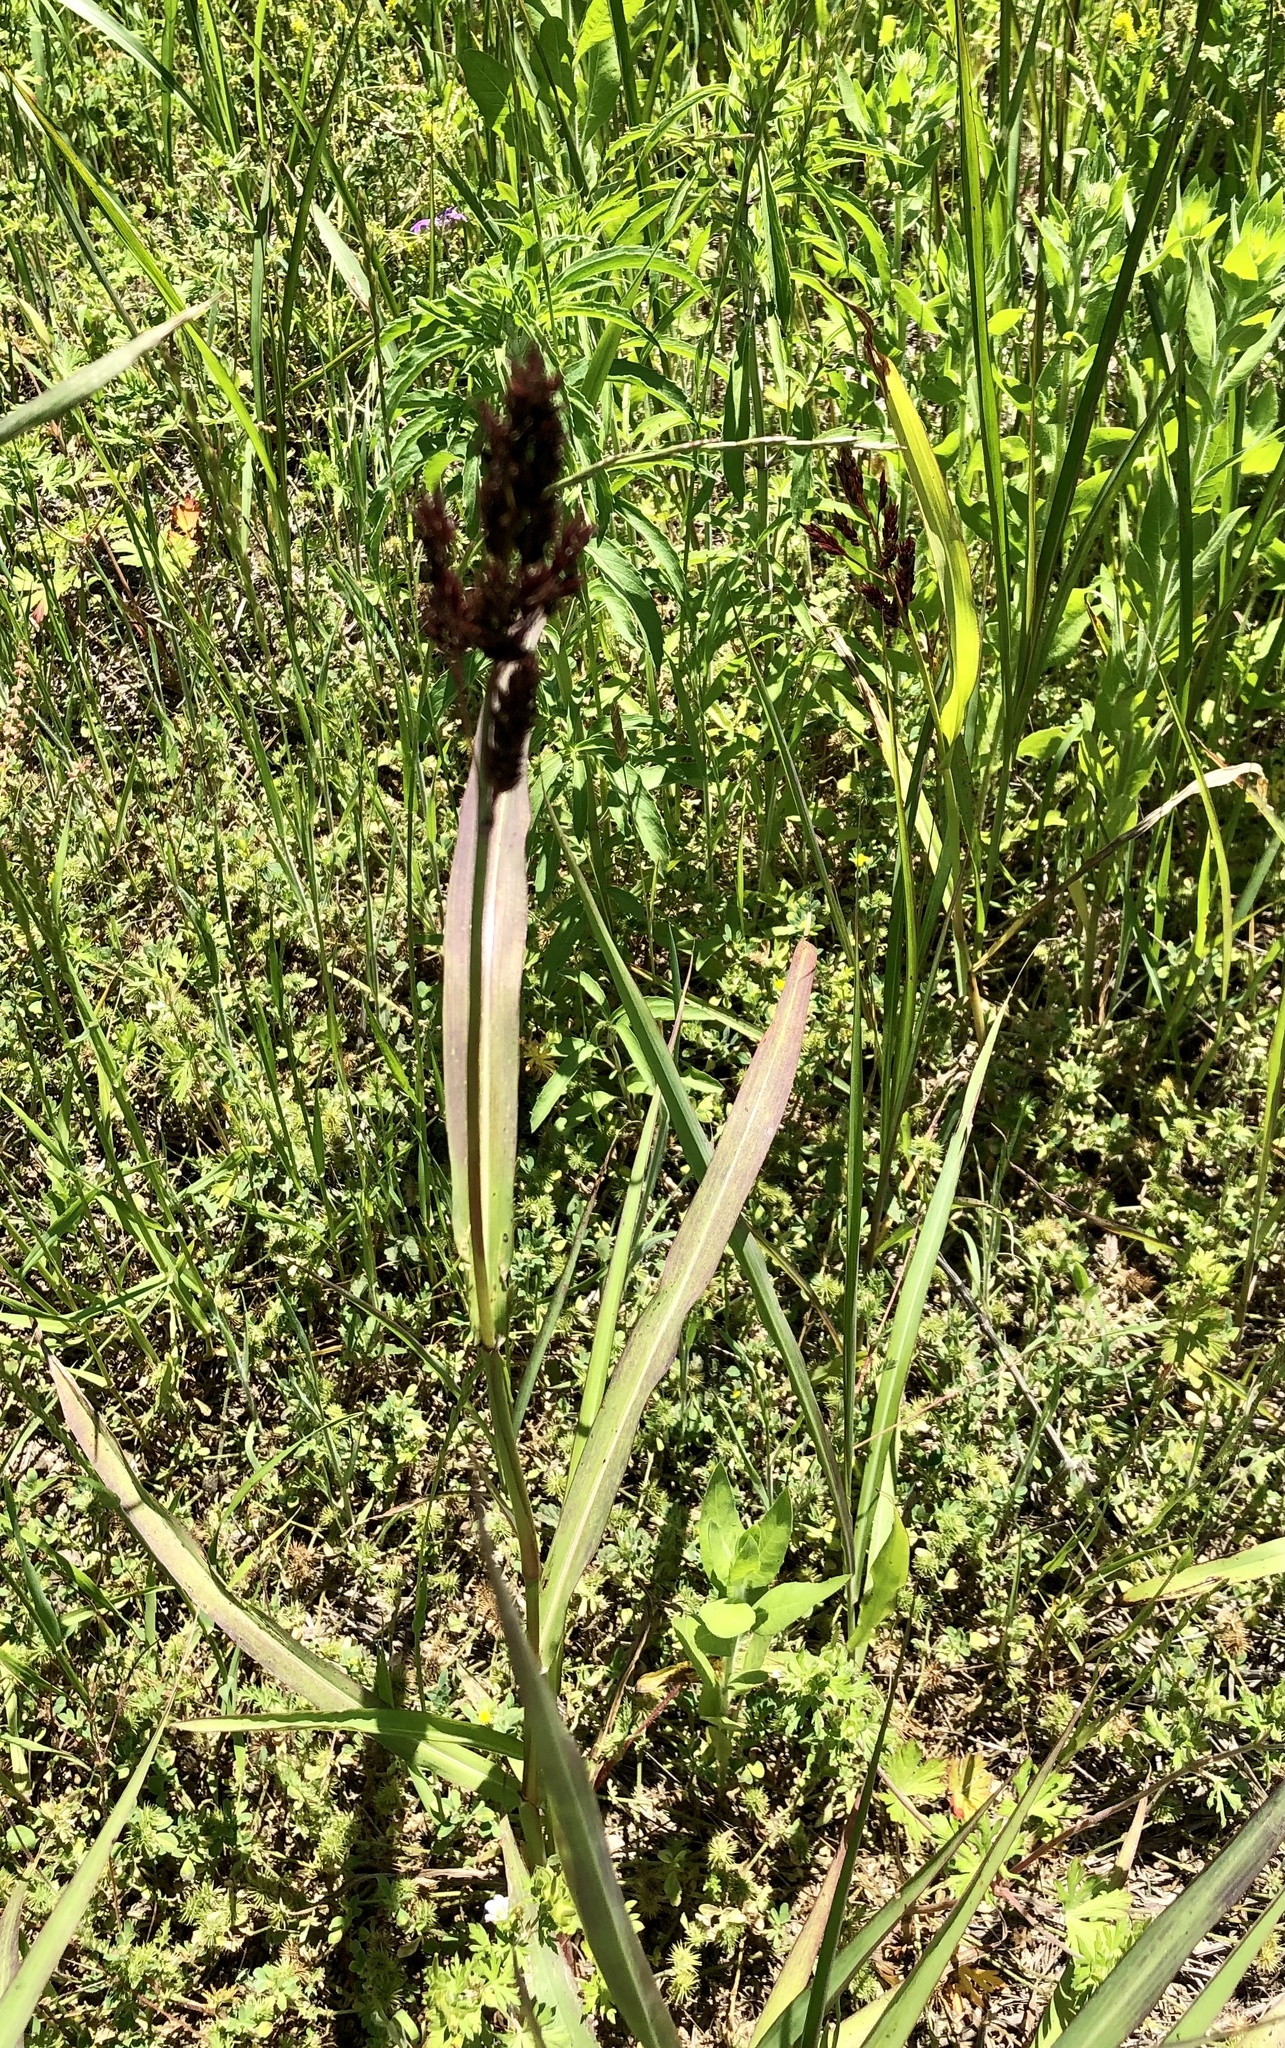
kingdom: Plantae
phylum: Tracheophyta
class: Liliopsida
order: Poales
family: Poaceae
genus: Sorghum
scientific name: Sorghum halepense
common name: Johnson-grass
